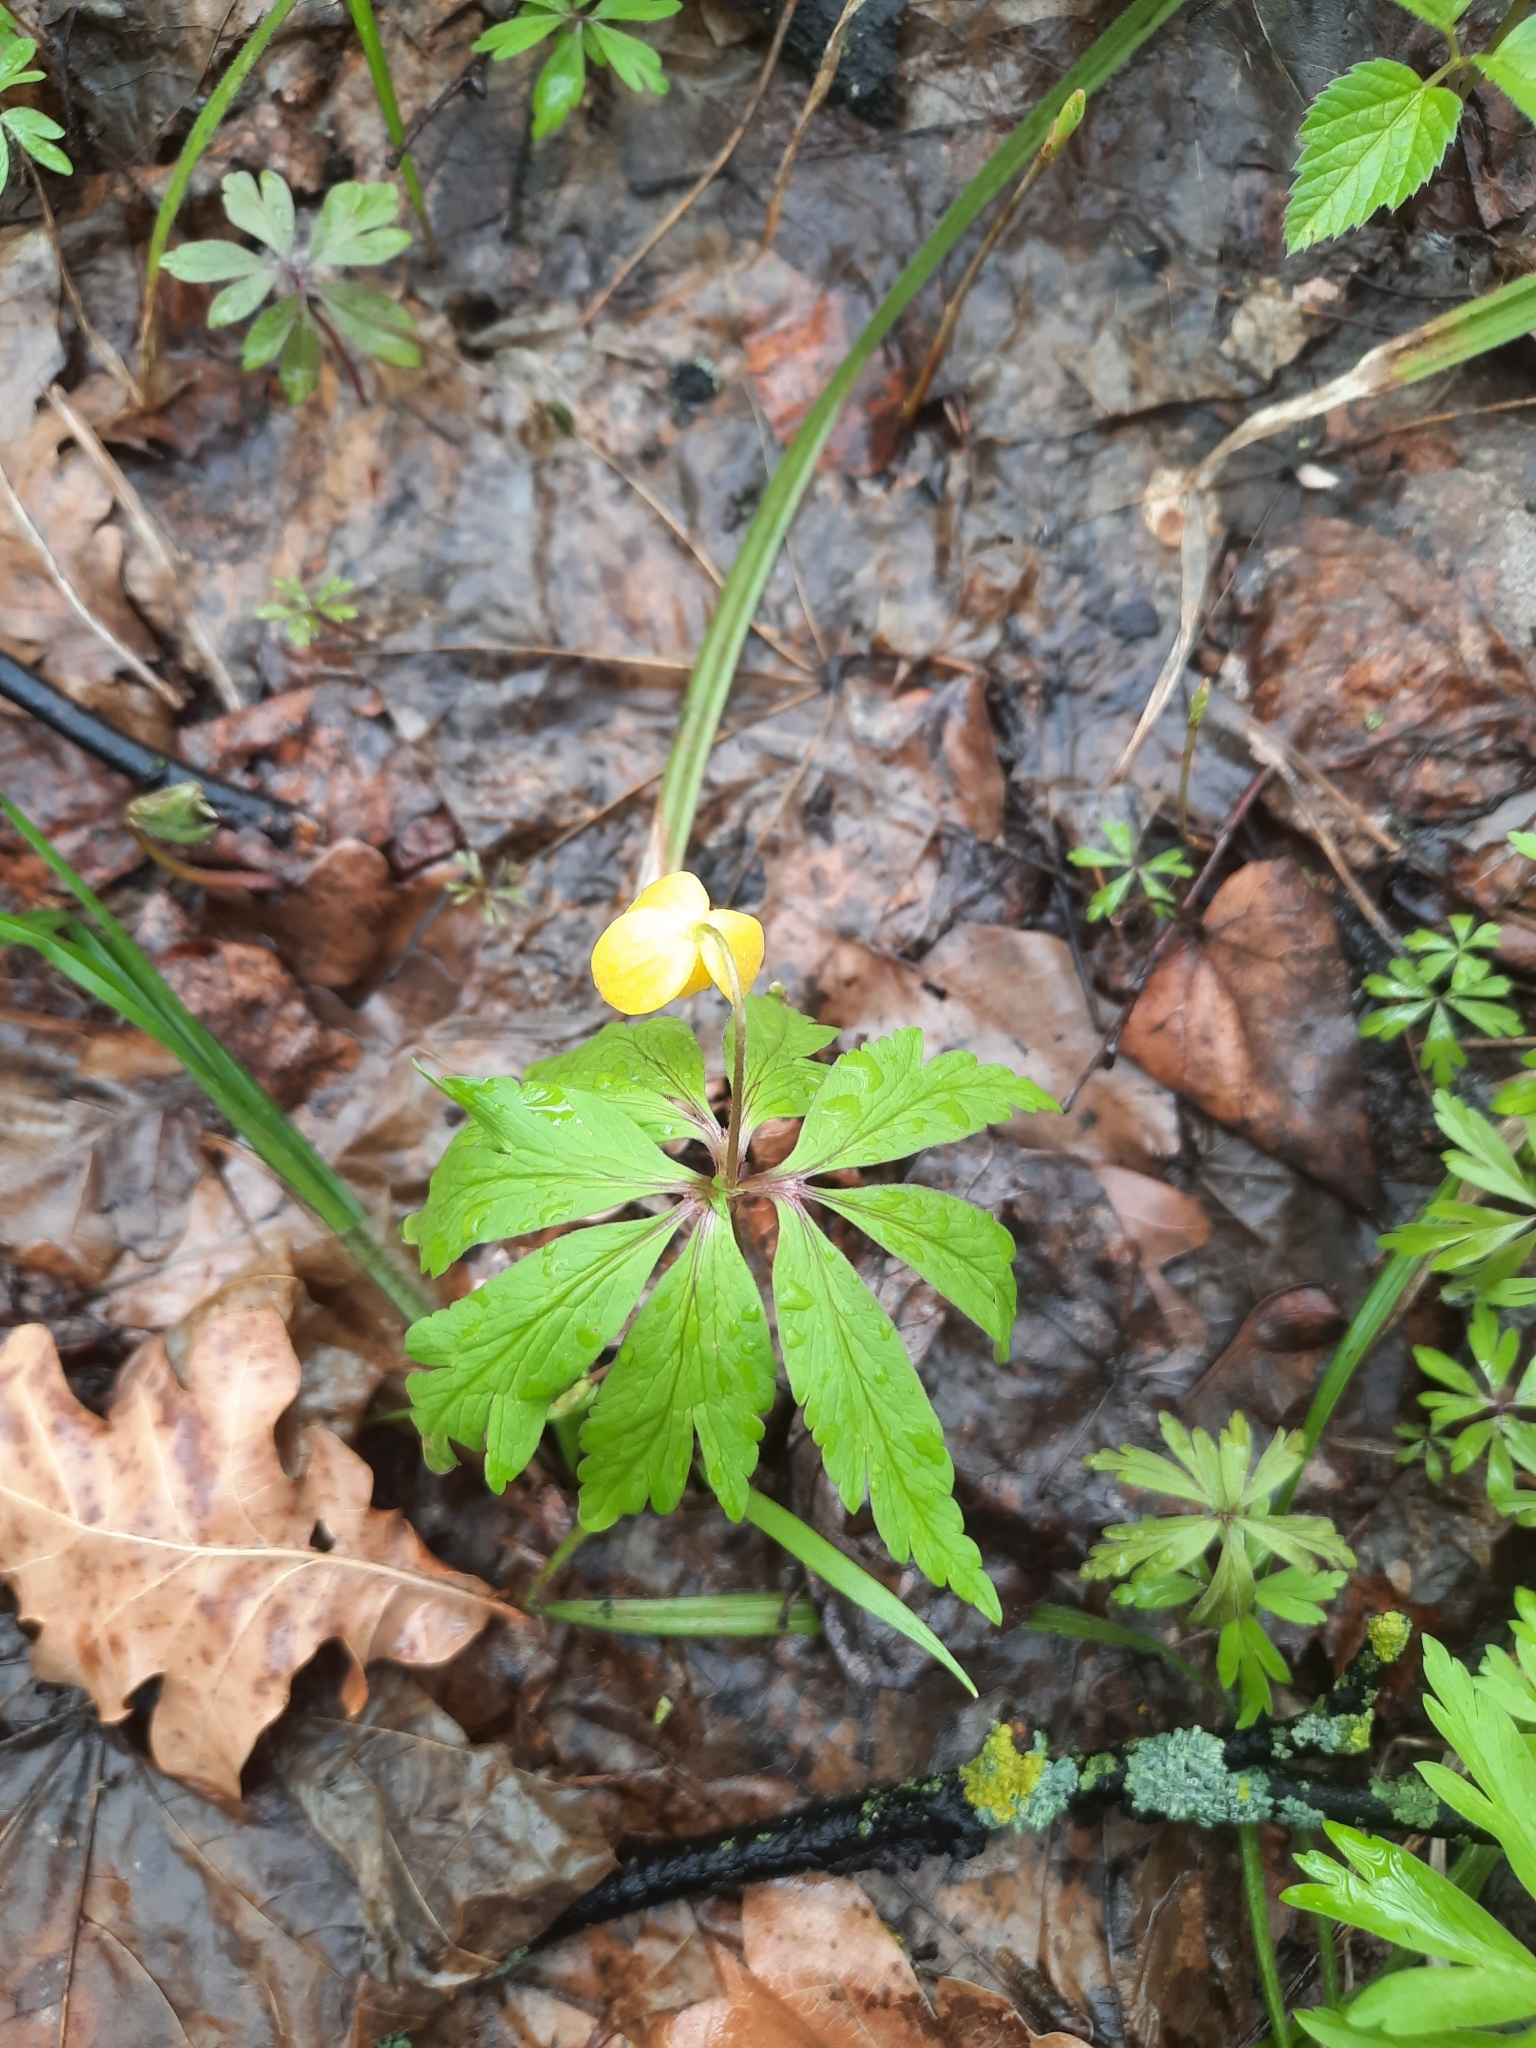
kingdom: Plantae
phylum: Tracheophyta
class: Magnoliopsida
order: Ranunculales
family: Ranunculaceae
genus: Anemone
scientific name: Anemone ranunculoides
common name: Yellow anemone
